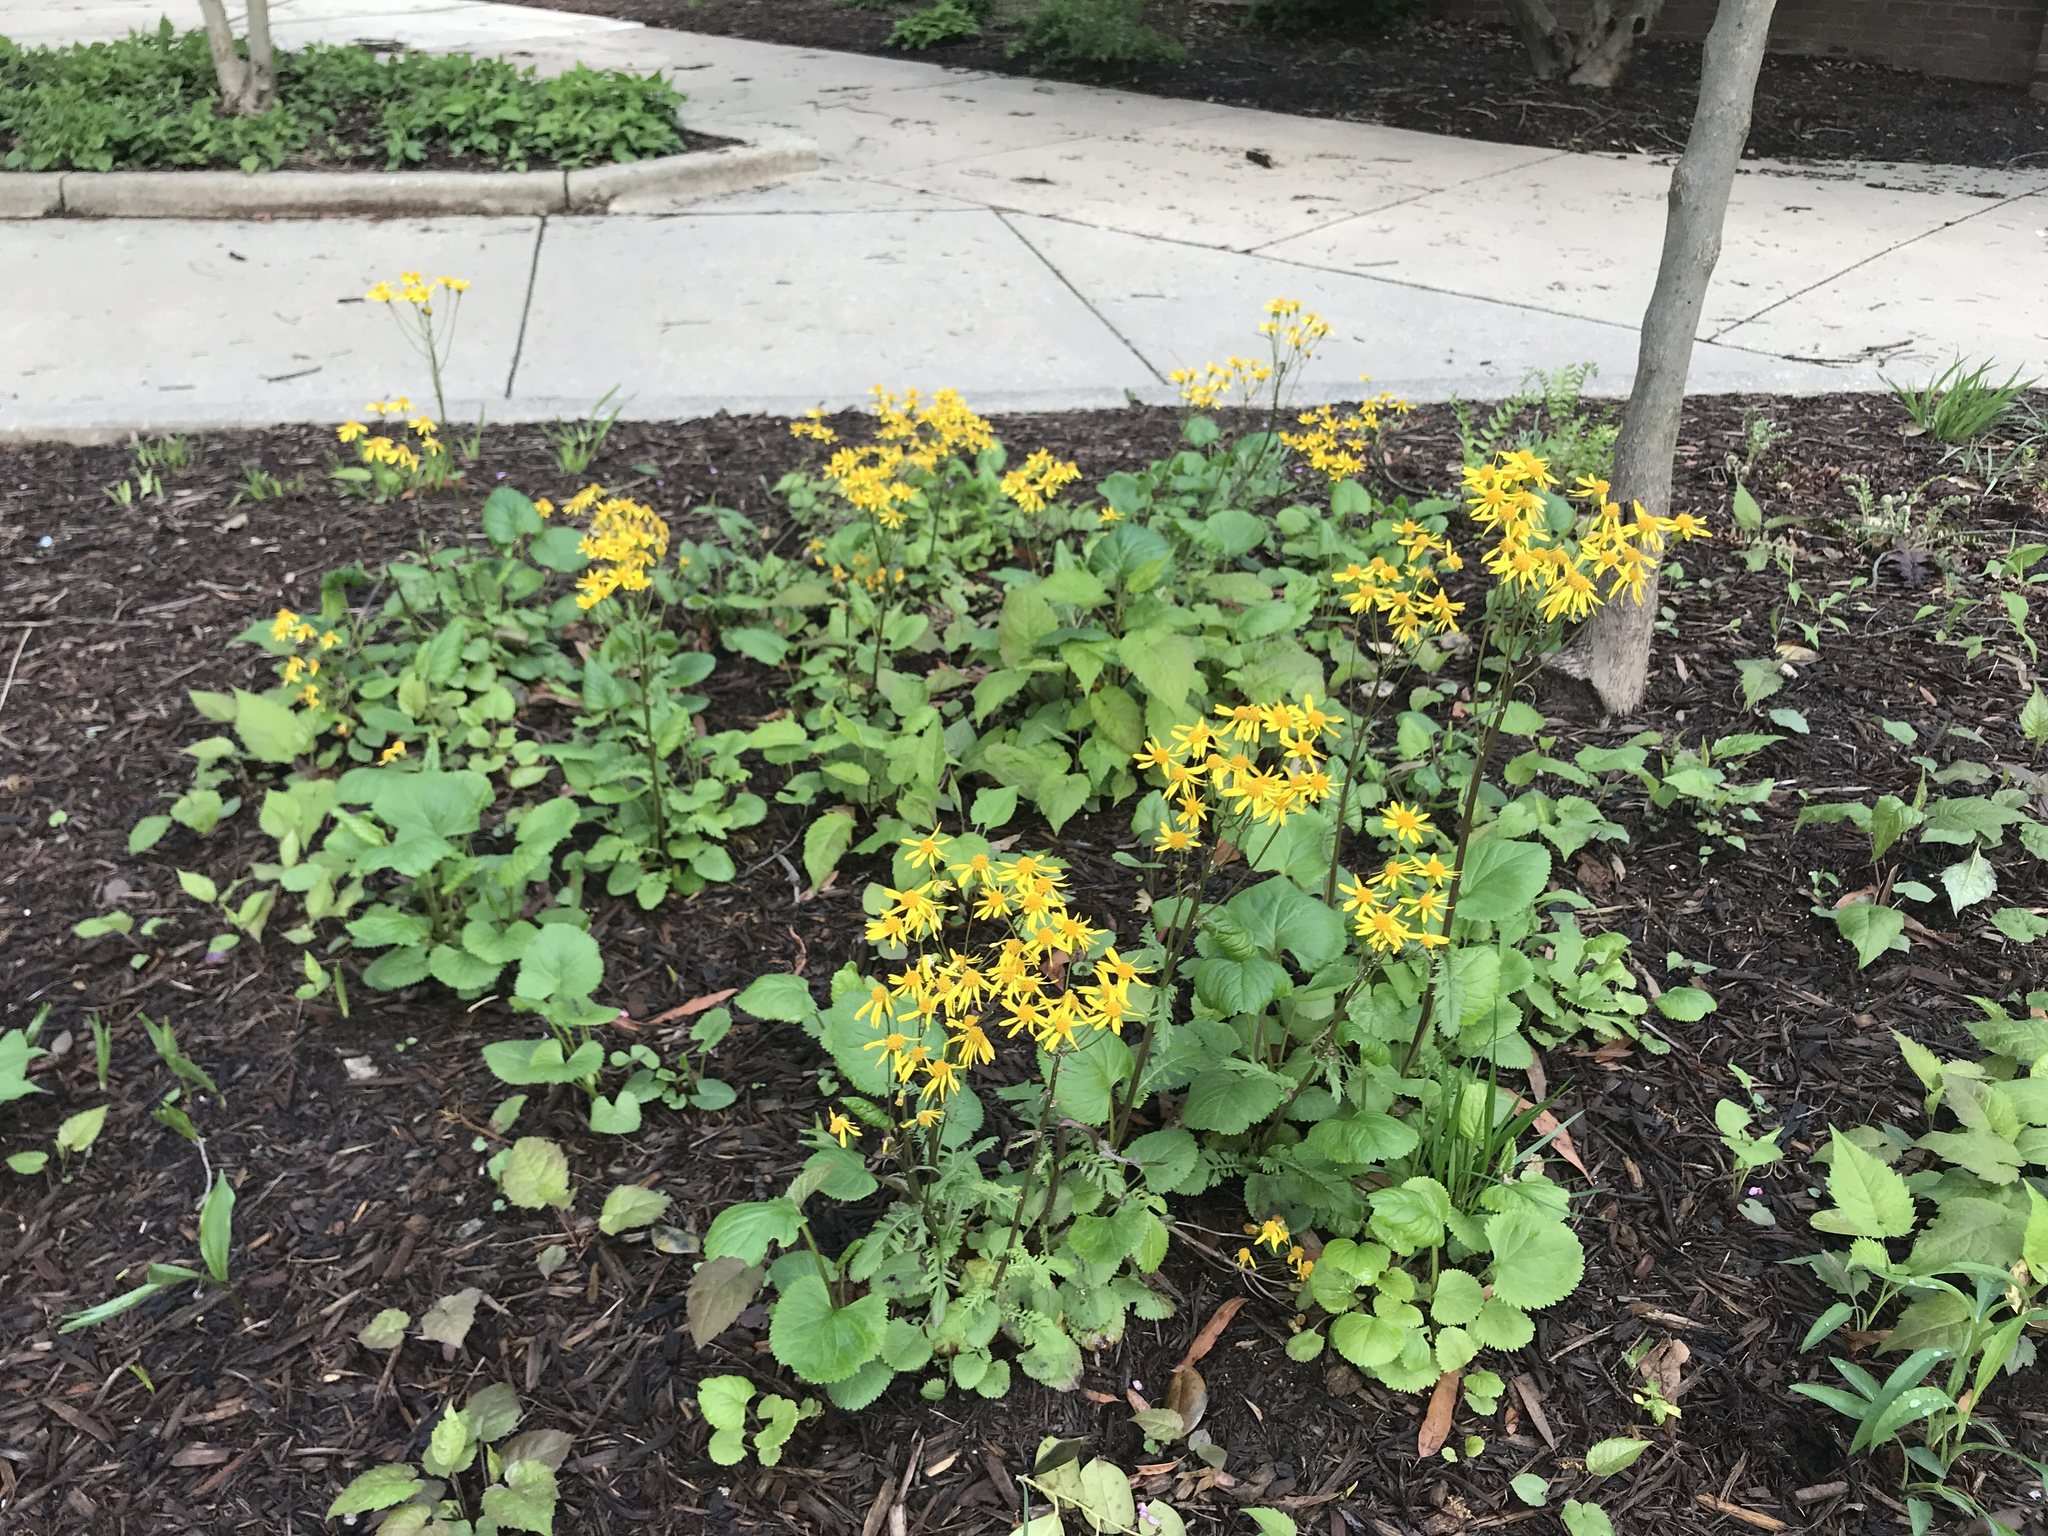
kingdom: Plantae
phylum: Tracheophyta
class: Magnoliopsida
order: Asterales
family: Asteraceae
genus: Packera
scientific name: Packera aurea
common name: Golden groundsel
